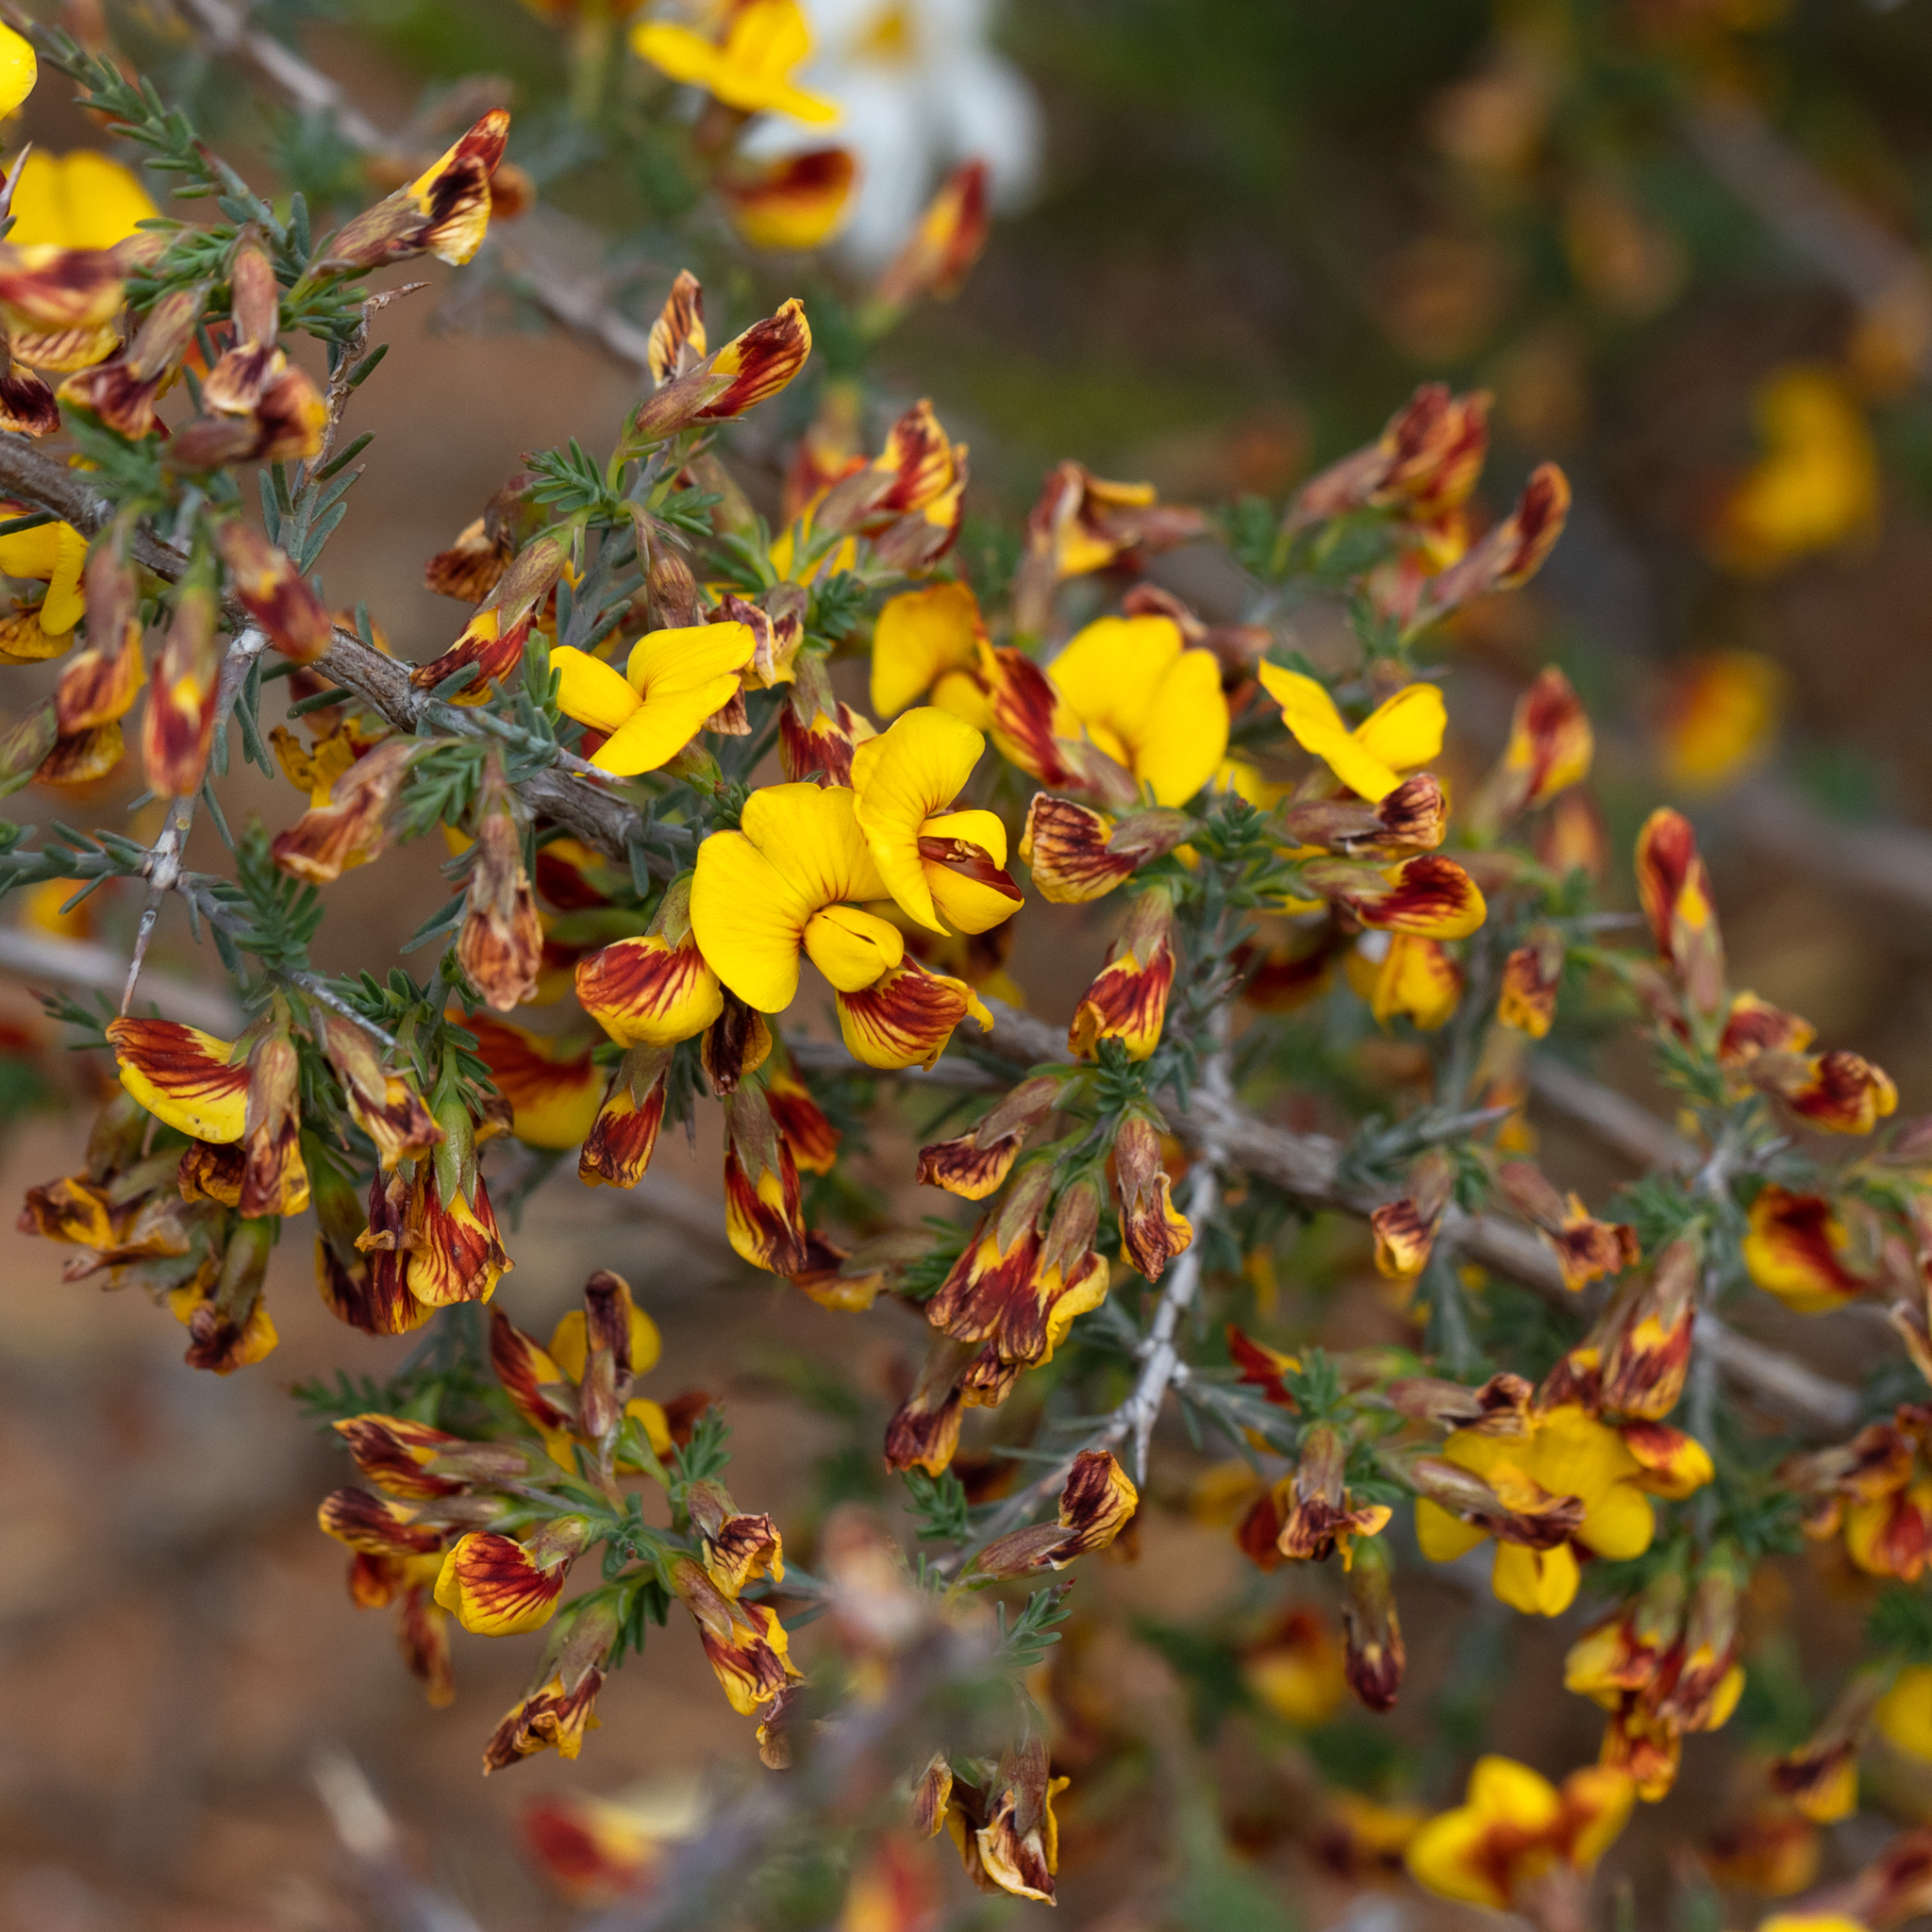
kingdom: Plantae
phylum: Tracheophyta
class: Magnoliopsida
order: Fabales
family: Fabaceae
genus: Eutaxia
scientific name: Eutaxia microphylla
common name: Mallee bush-pea
